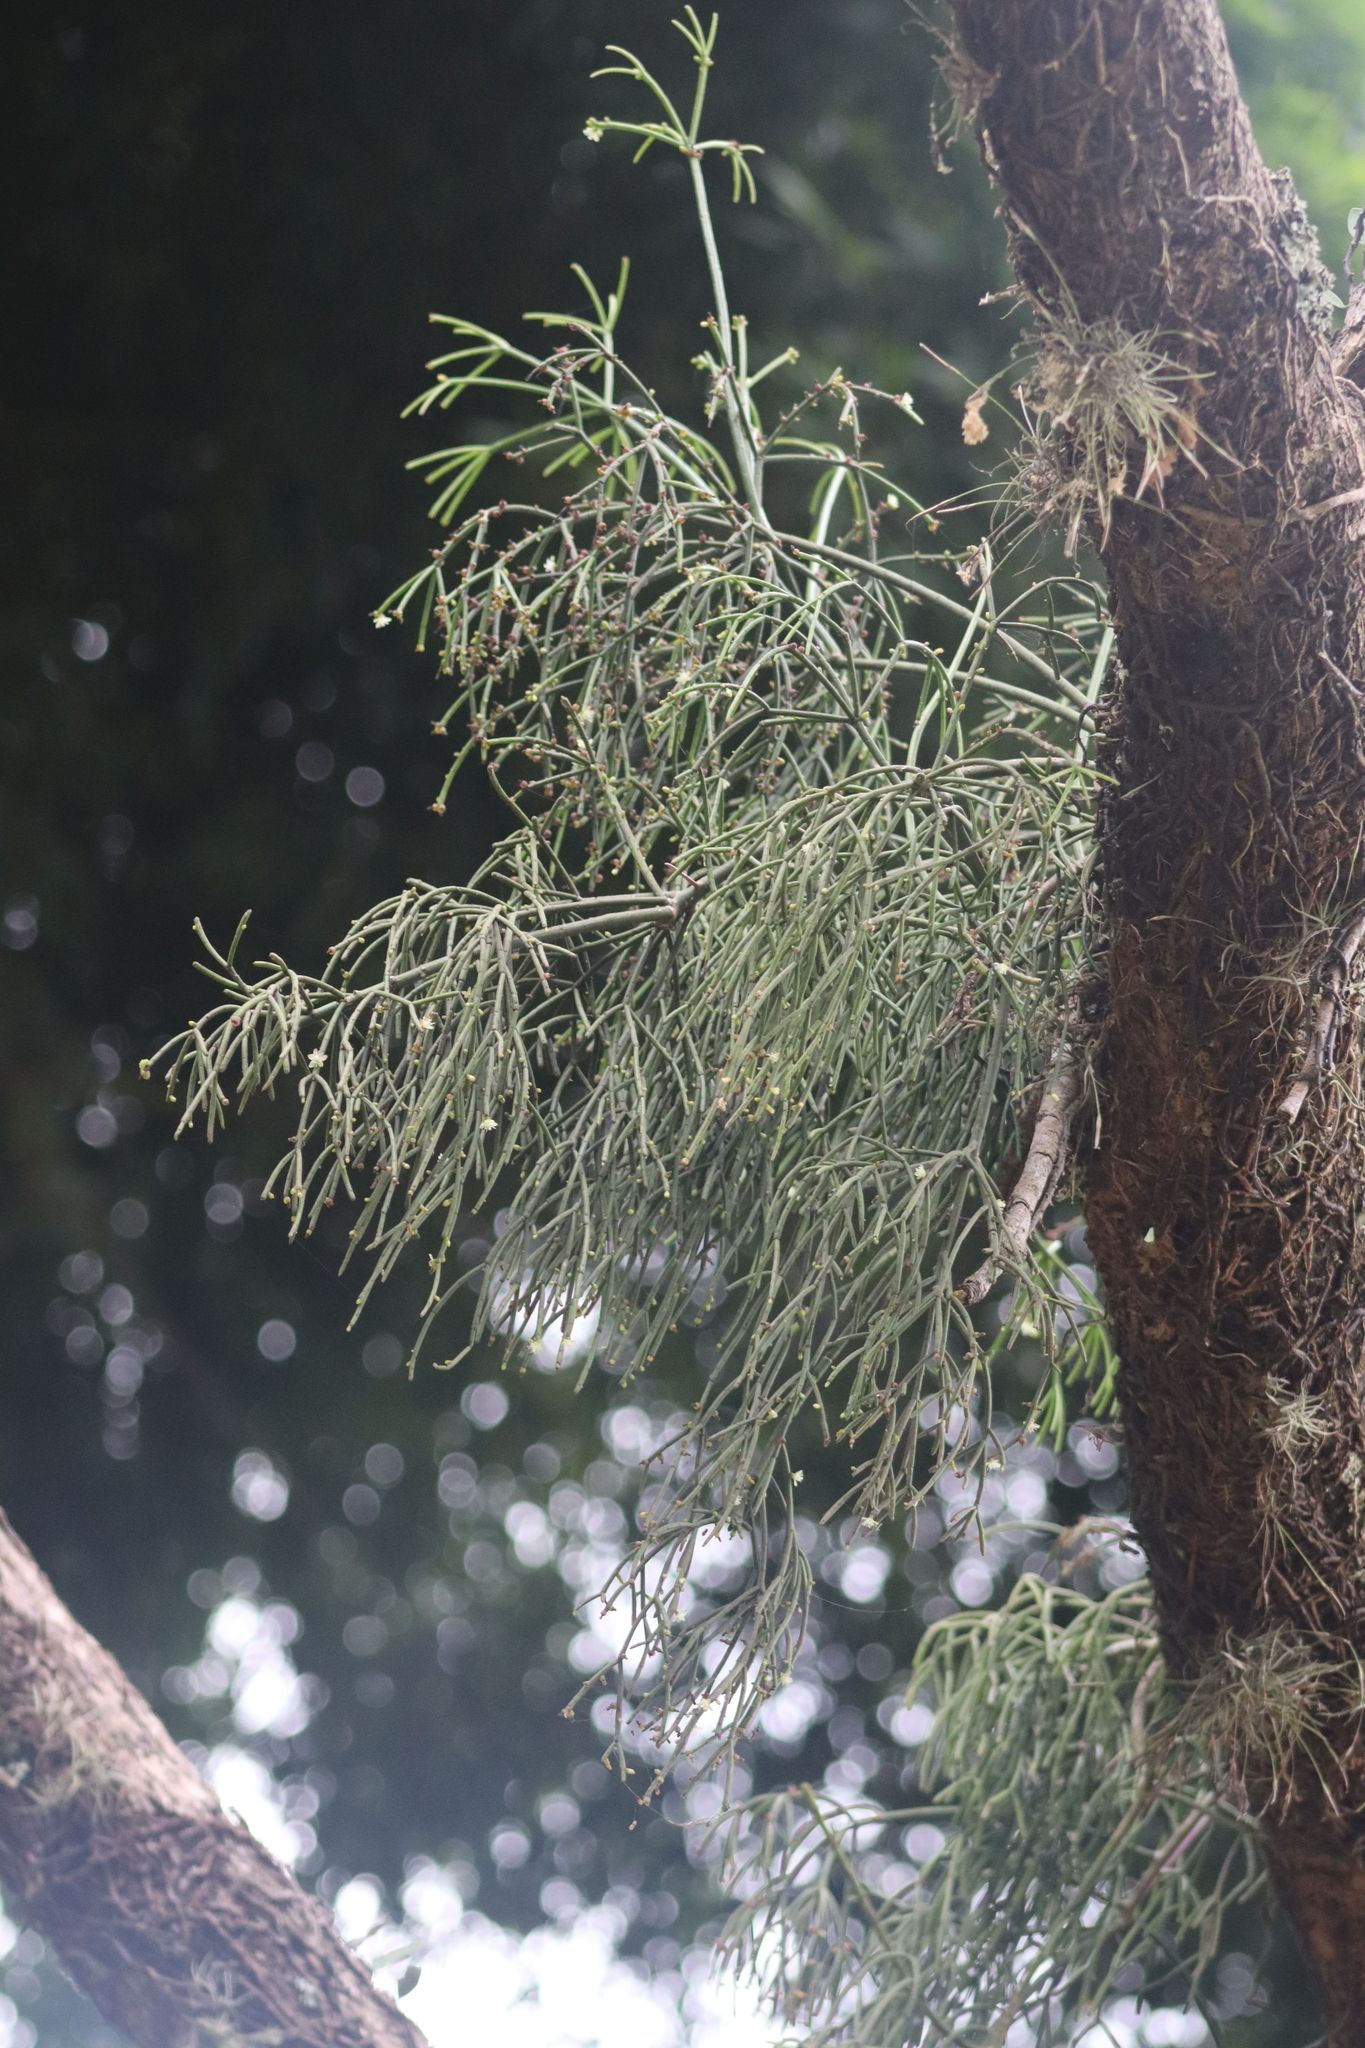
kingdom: Plantae
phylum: Tracheophyta
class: Magnoliopsida
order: Caryophyllales
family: Cactaceae
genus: Rhipsalis
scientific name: Rhipsalis baccifera
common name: Mistletoe cactus
